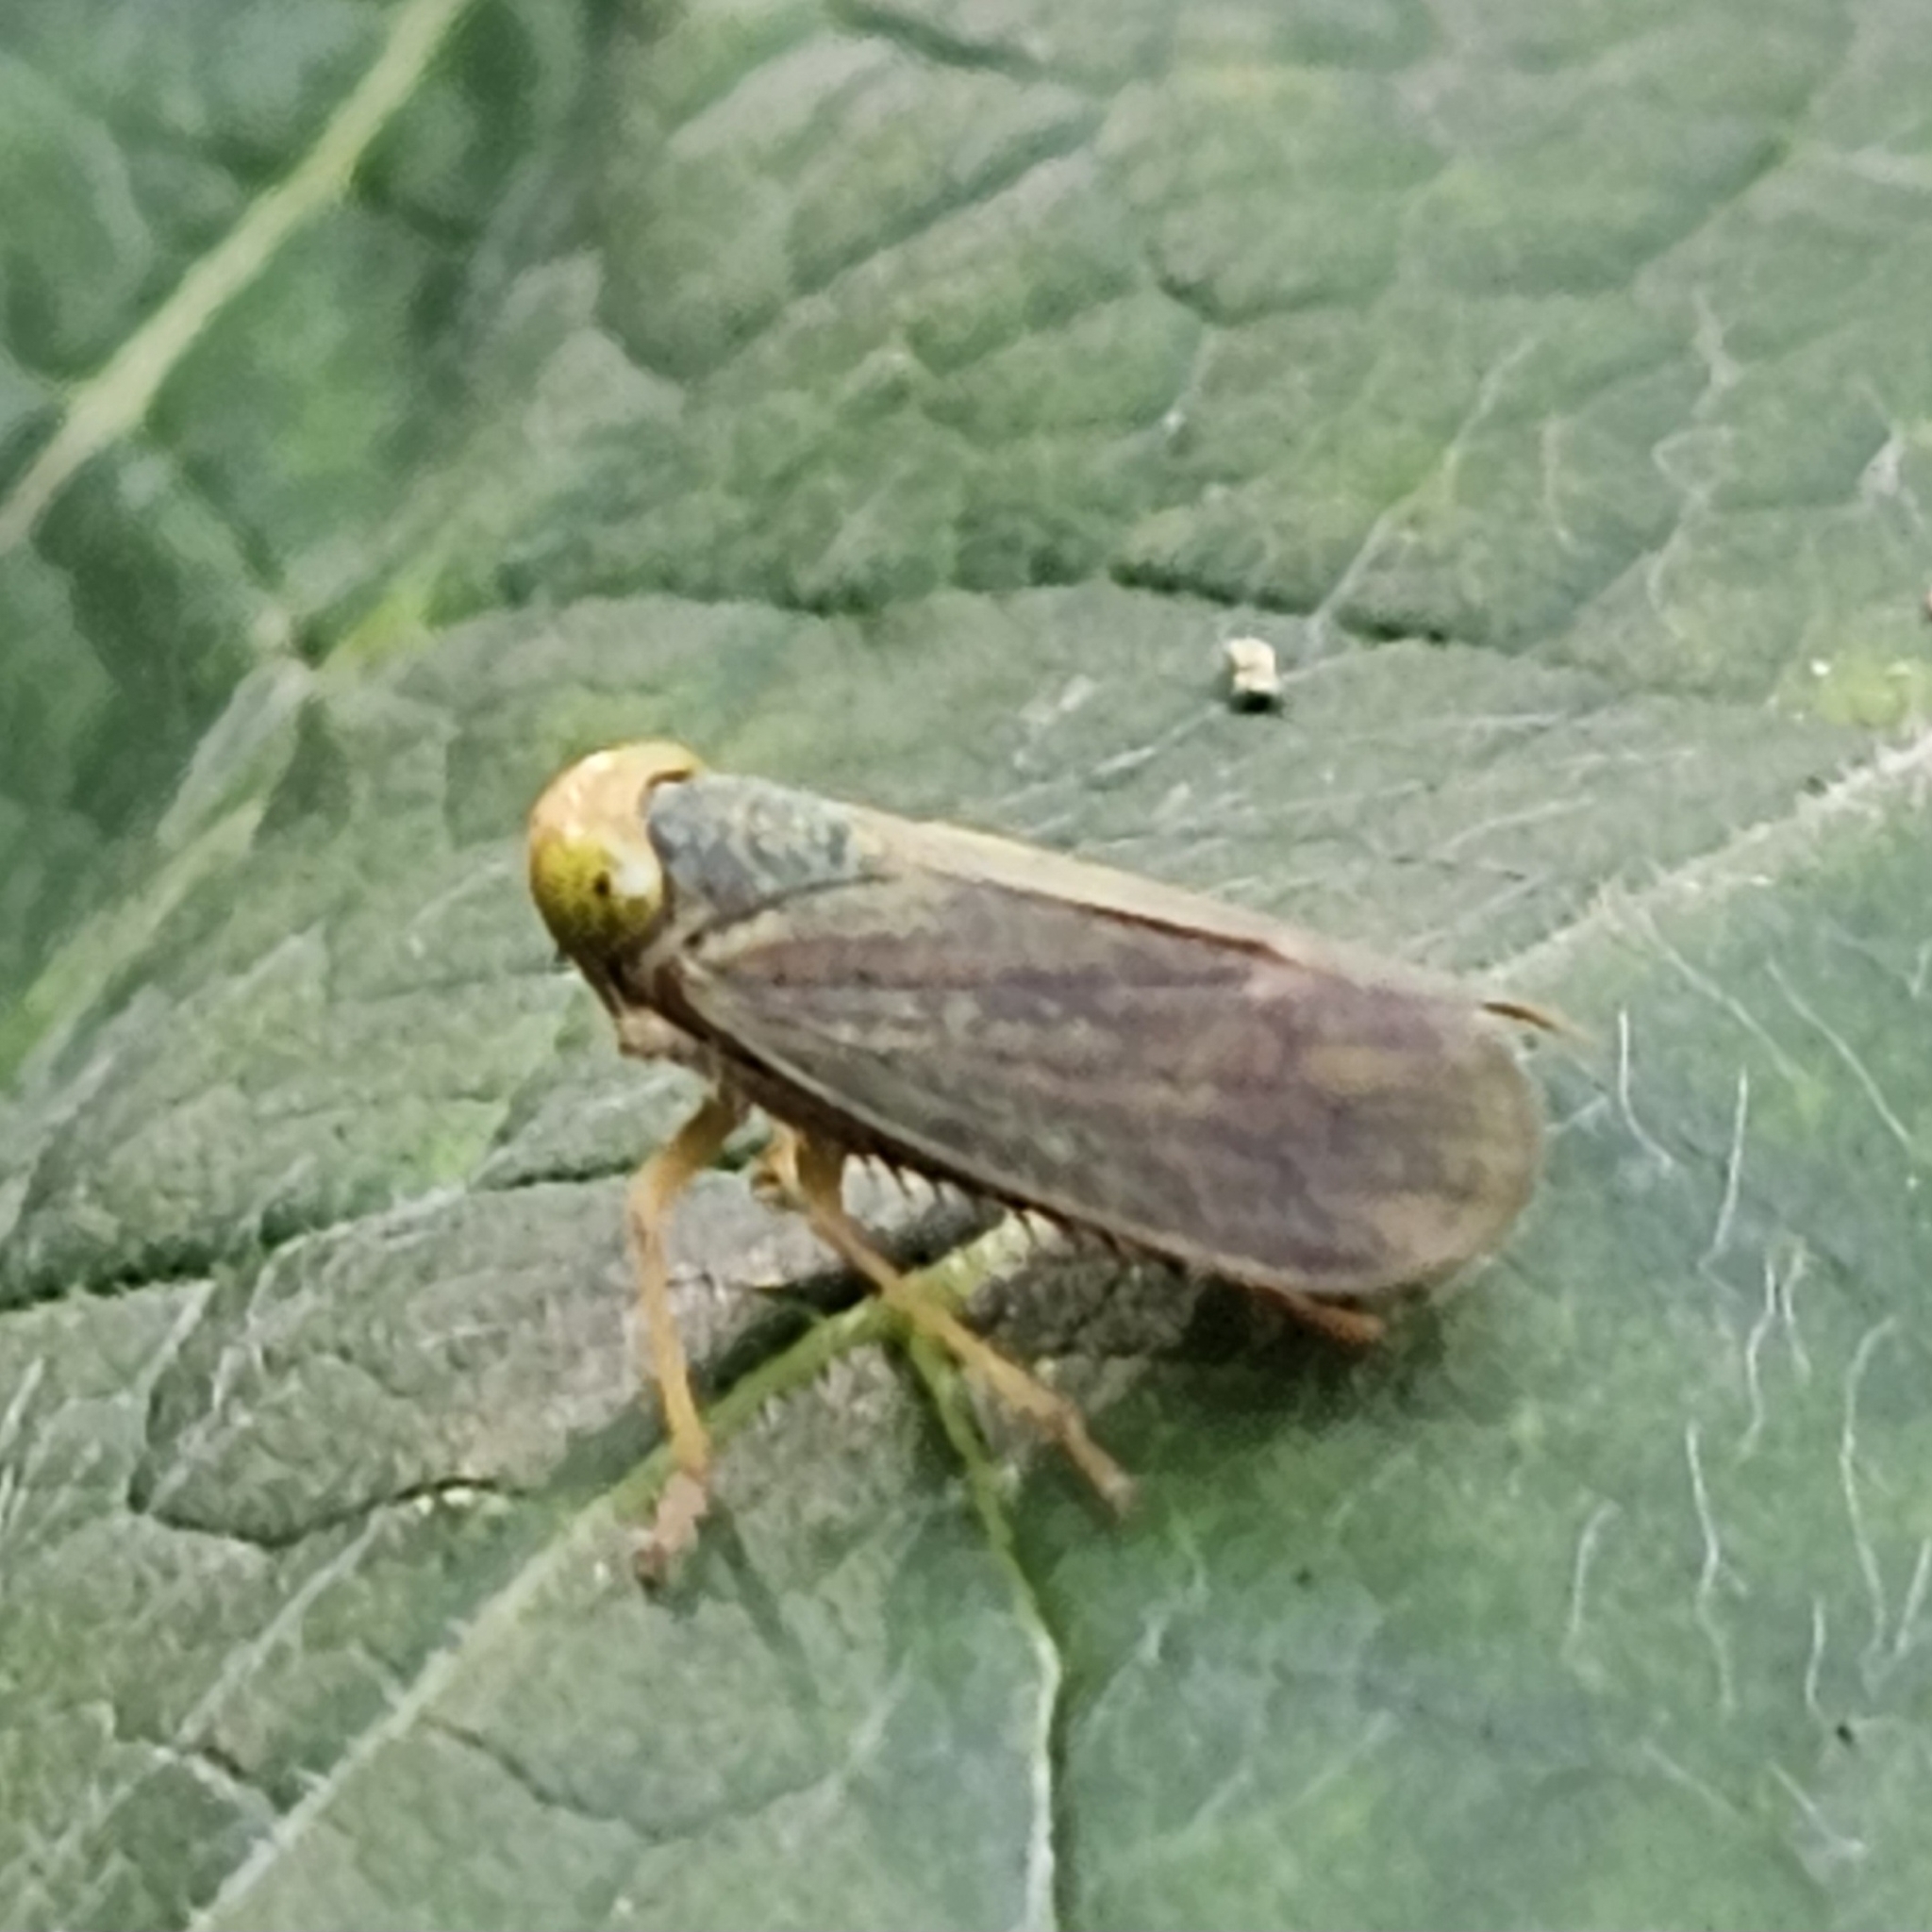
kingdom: Animalia
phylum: Arthropoda
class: Insecta
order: Hemiptera
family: Cicadellidae
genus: Jikradia
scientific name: Jikradia olitoria
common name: Coppery leafhopper
